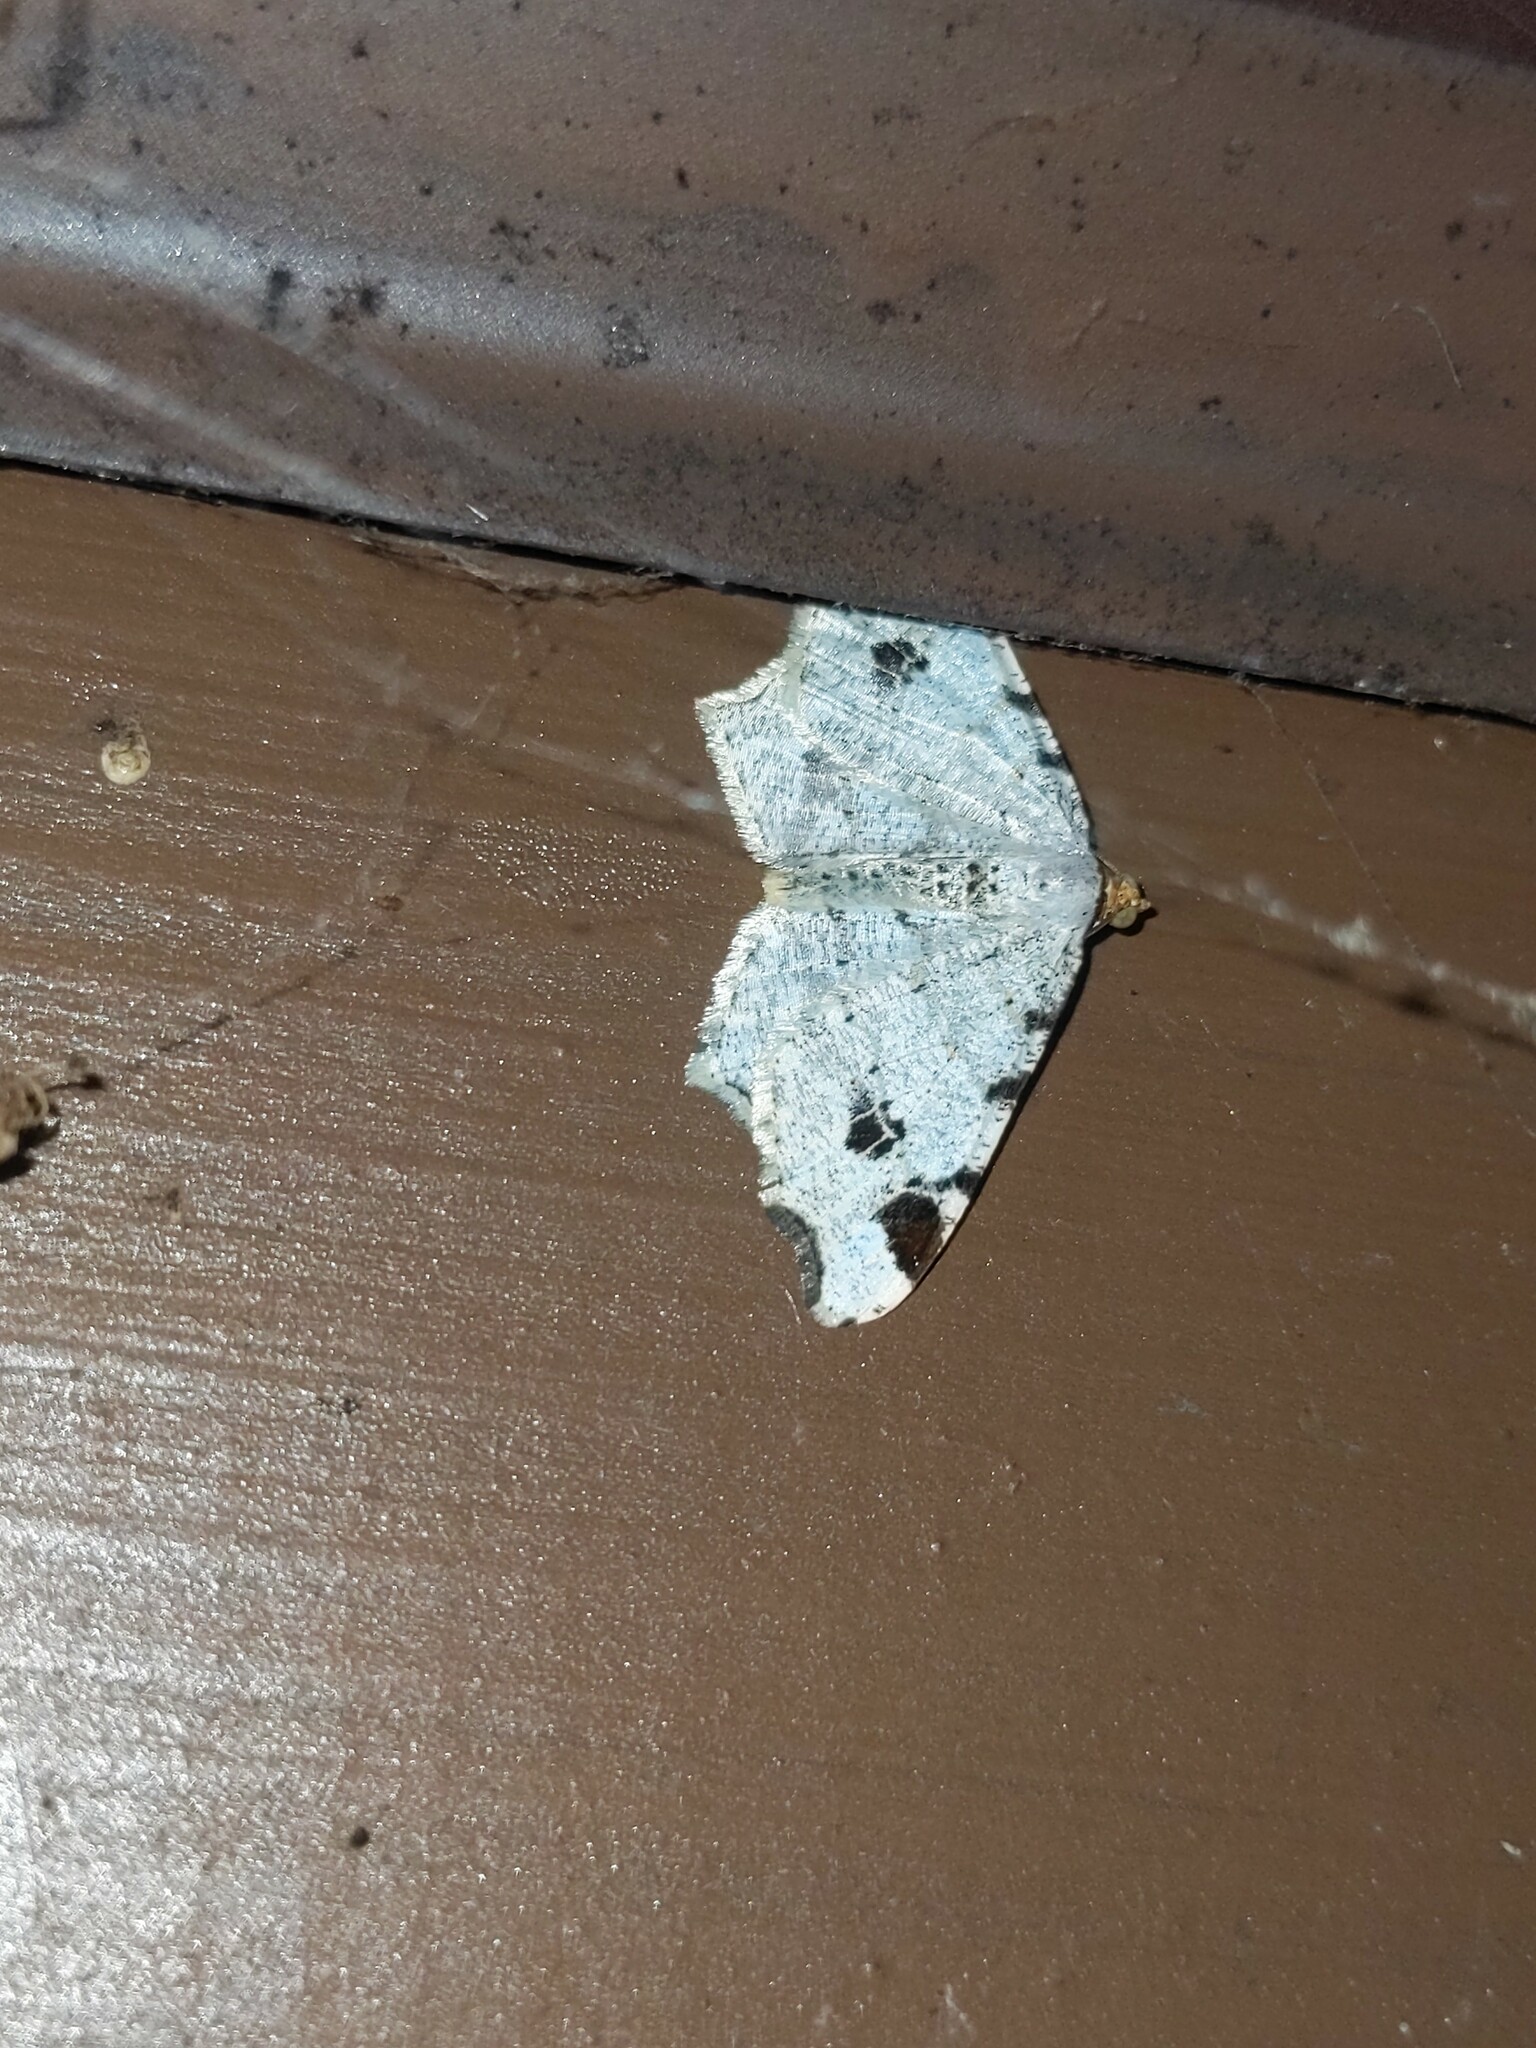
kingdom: Animalia
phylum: Arthropoda
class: Insecta
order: Lepidoptera
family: Geometridae
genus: Macaria
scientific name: Macaria ulsterata
